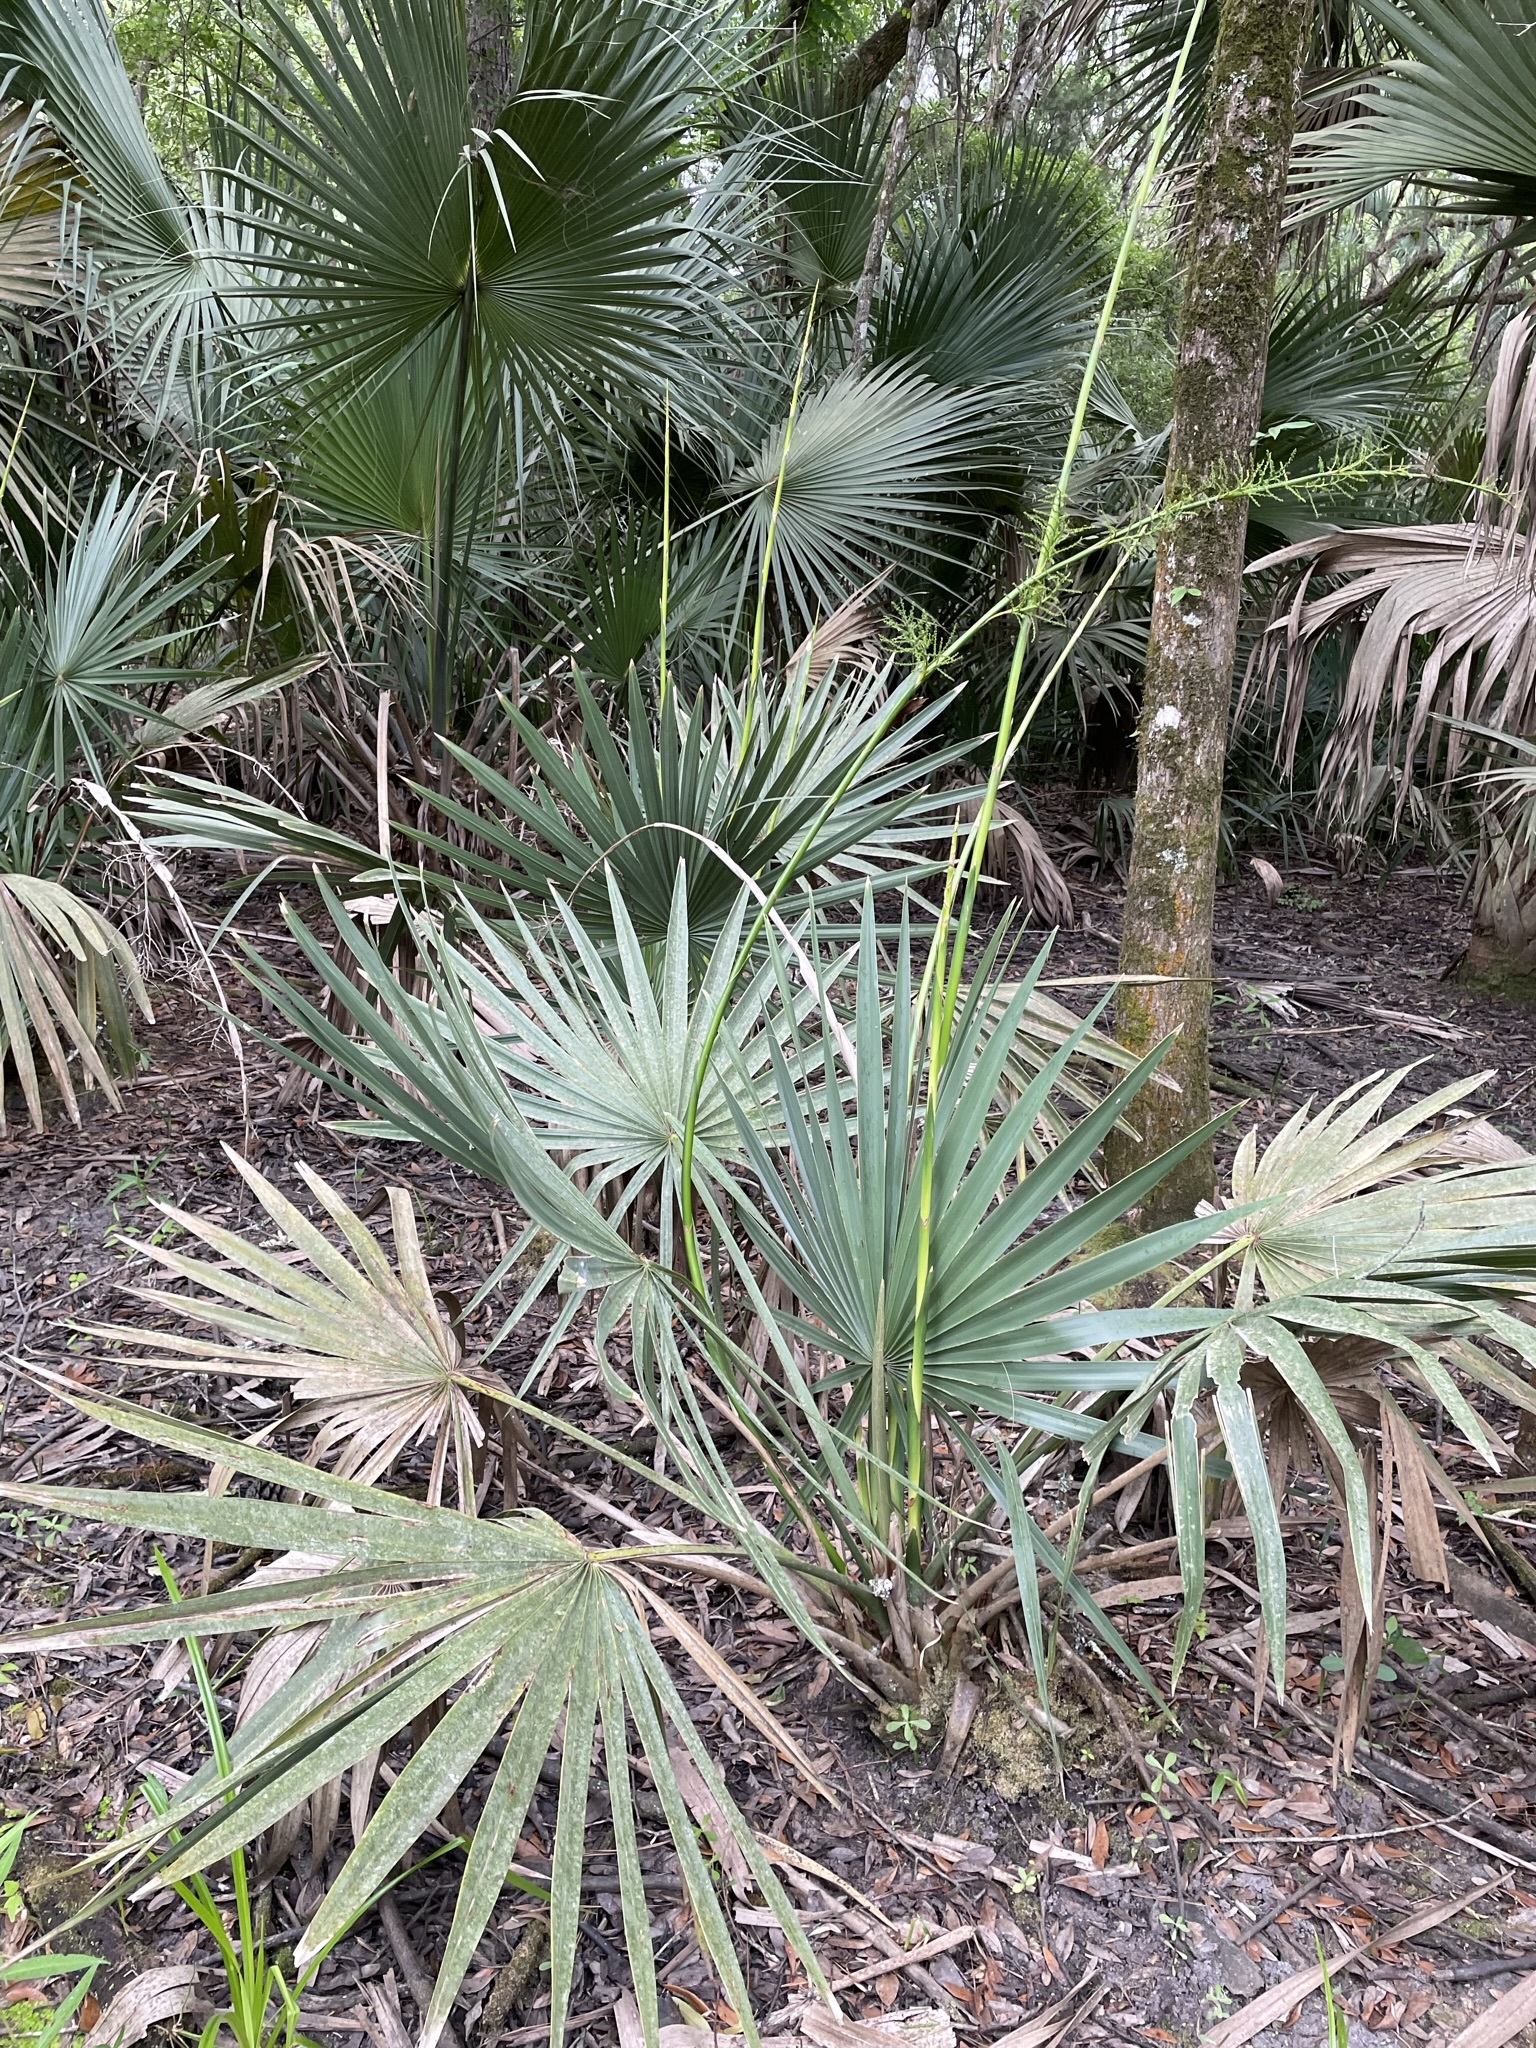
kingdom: Plantae
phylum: Tracheophyta
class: Liliopsida
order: Arecales
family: Arecaceae
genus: Sabal
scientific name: Sabal minor
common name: Dwarf palmetto
